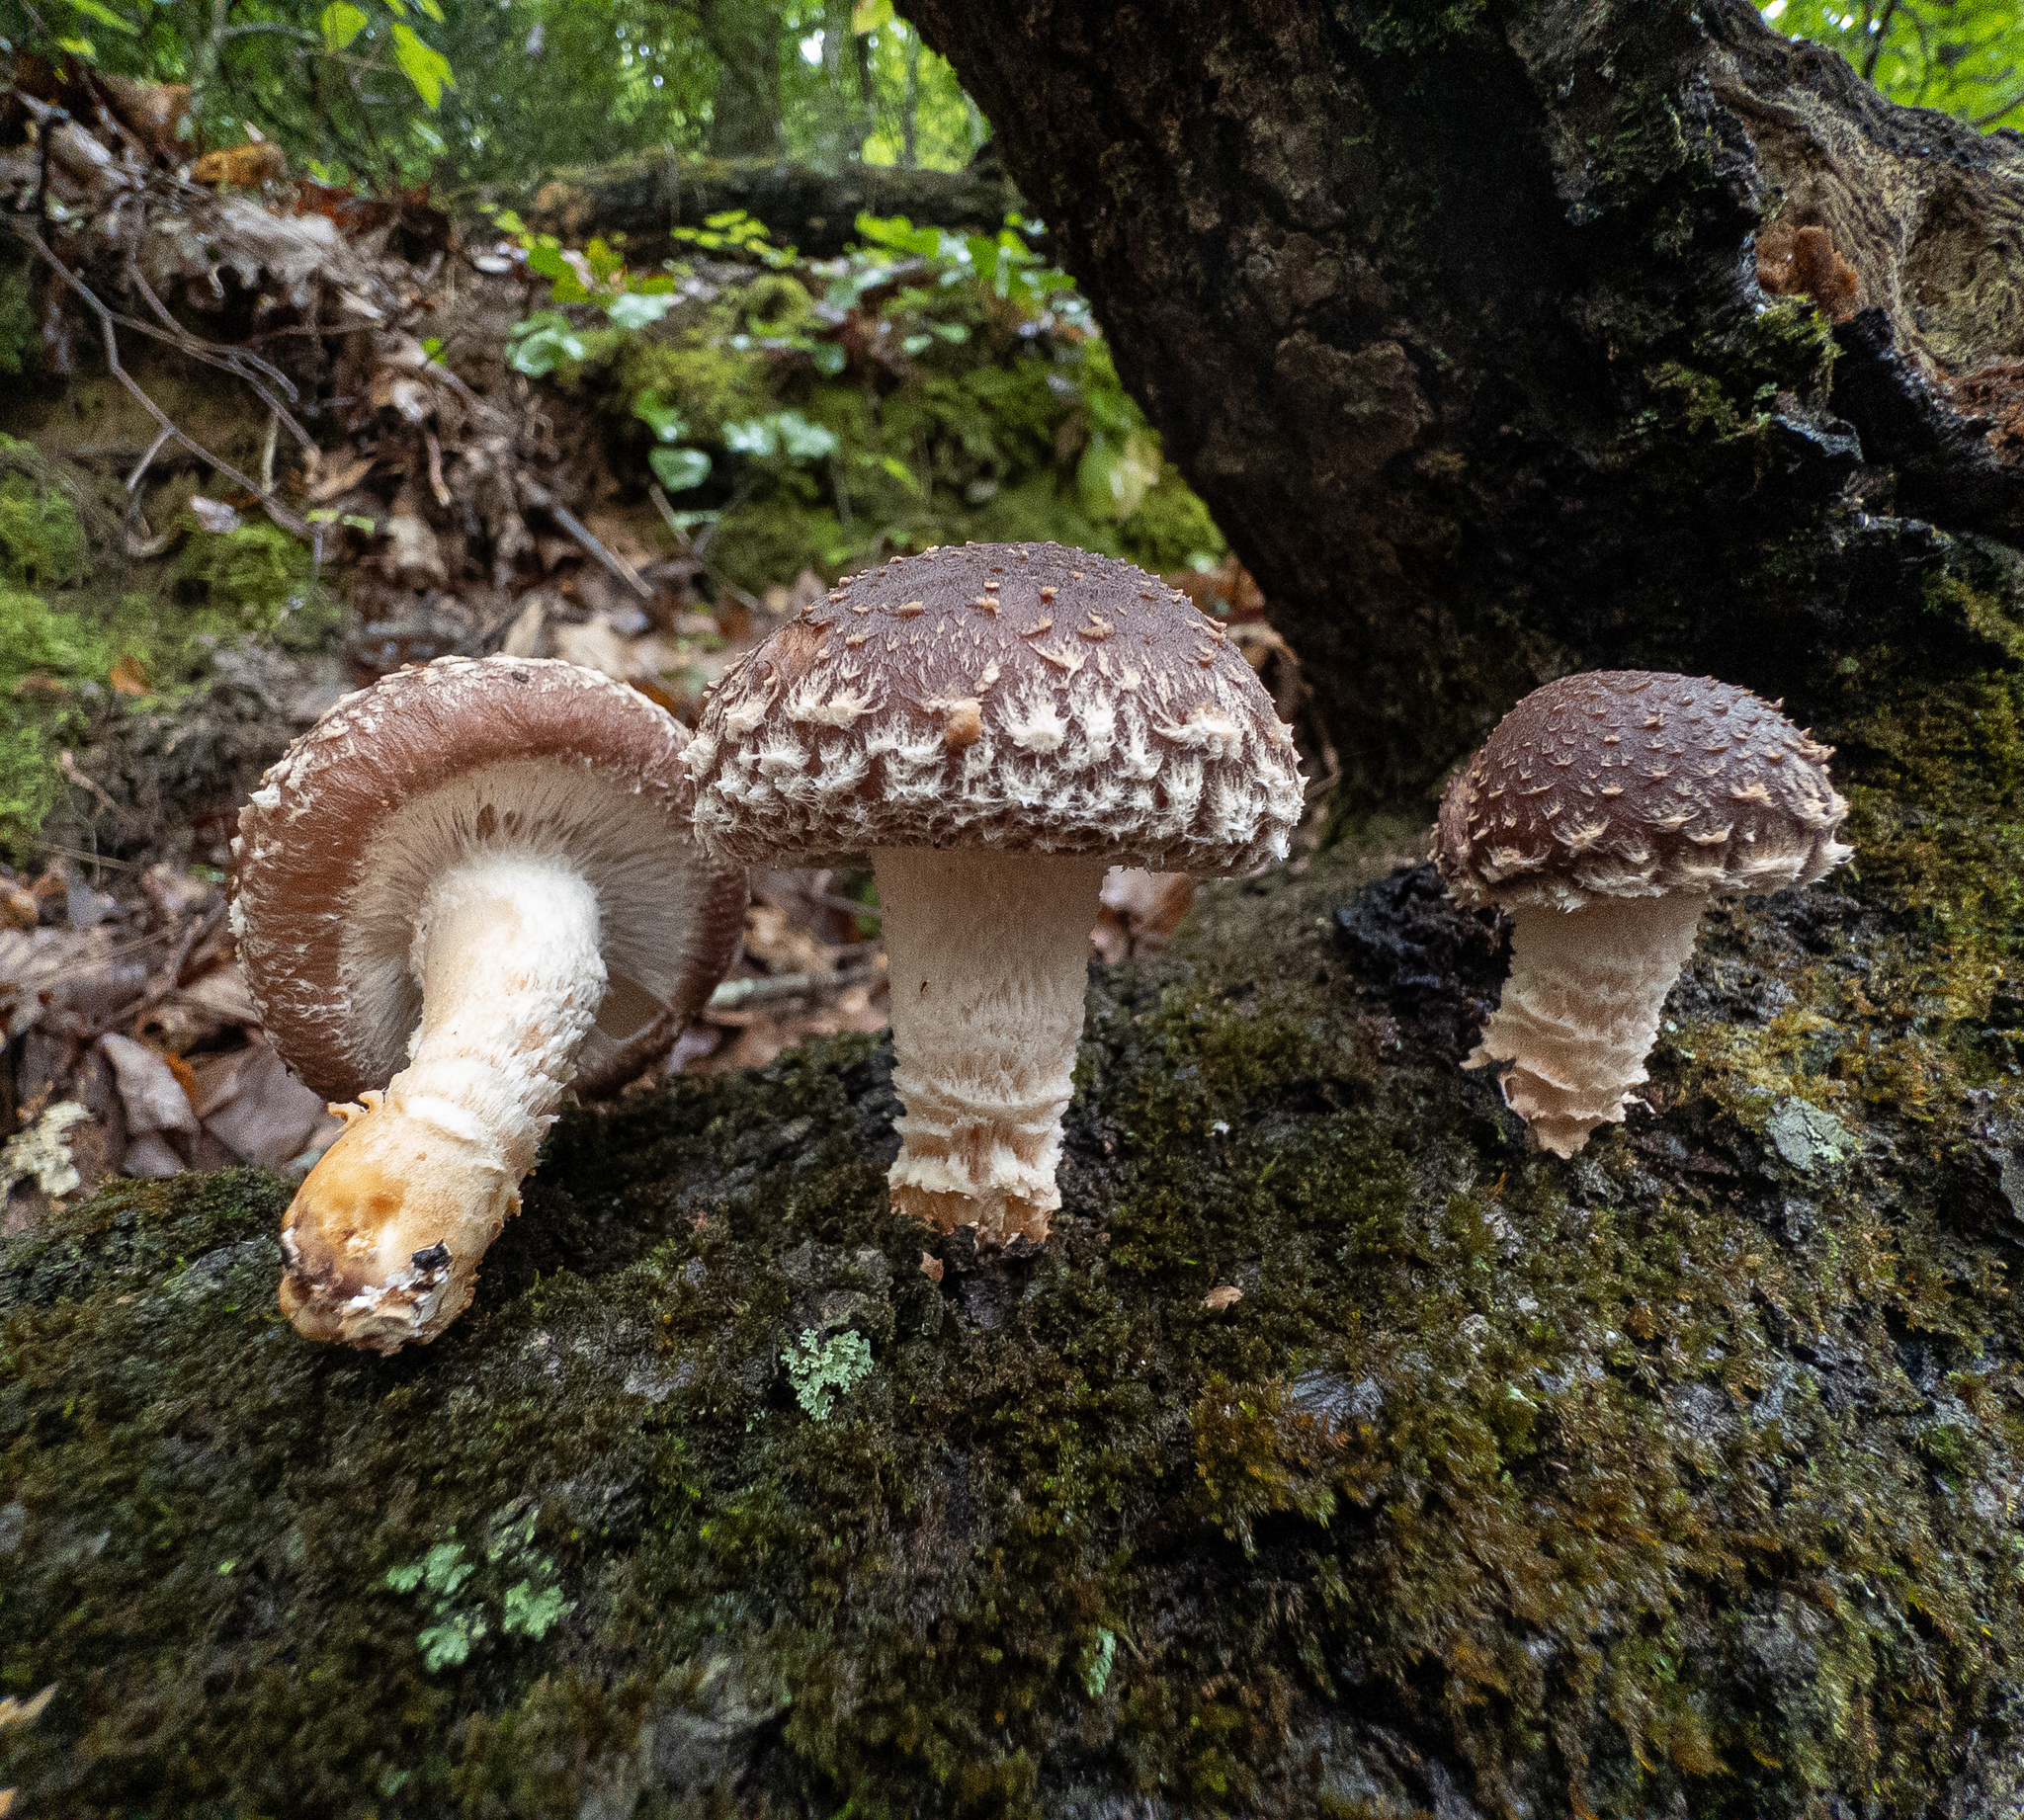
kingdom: Fungi
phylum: Basidiomycota
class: Agaricomycetes
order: Agaricales
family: Omphalotaceae
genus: Lentinula
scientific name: Lentinula edodes
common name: Shiitake
